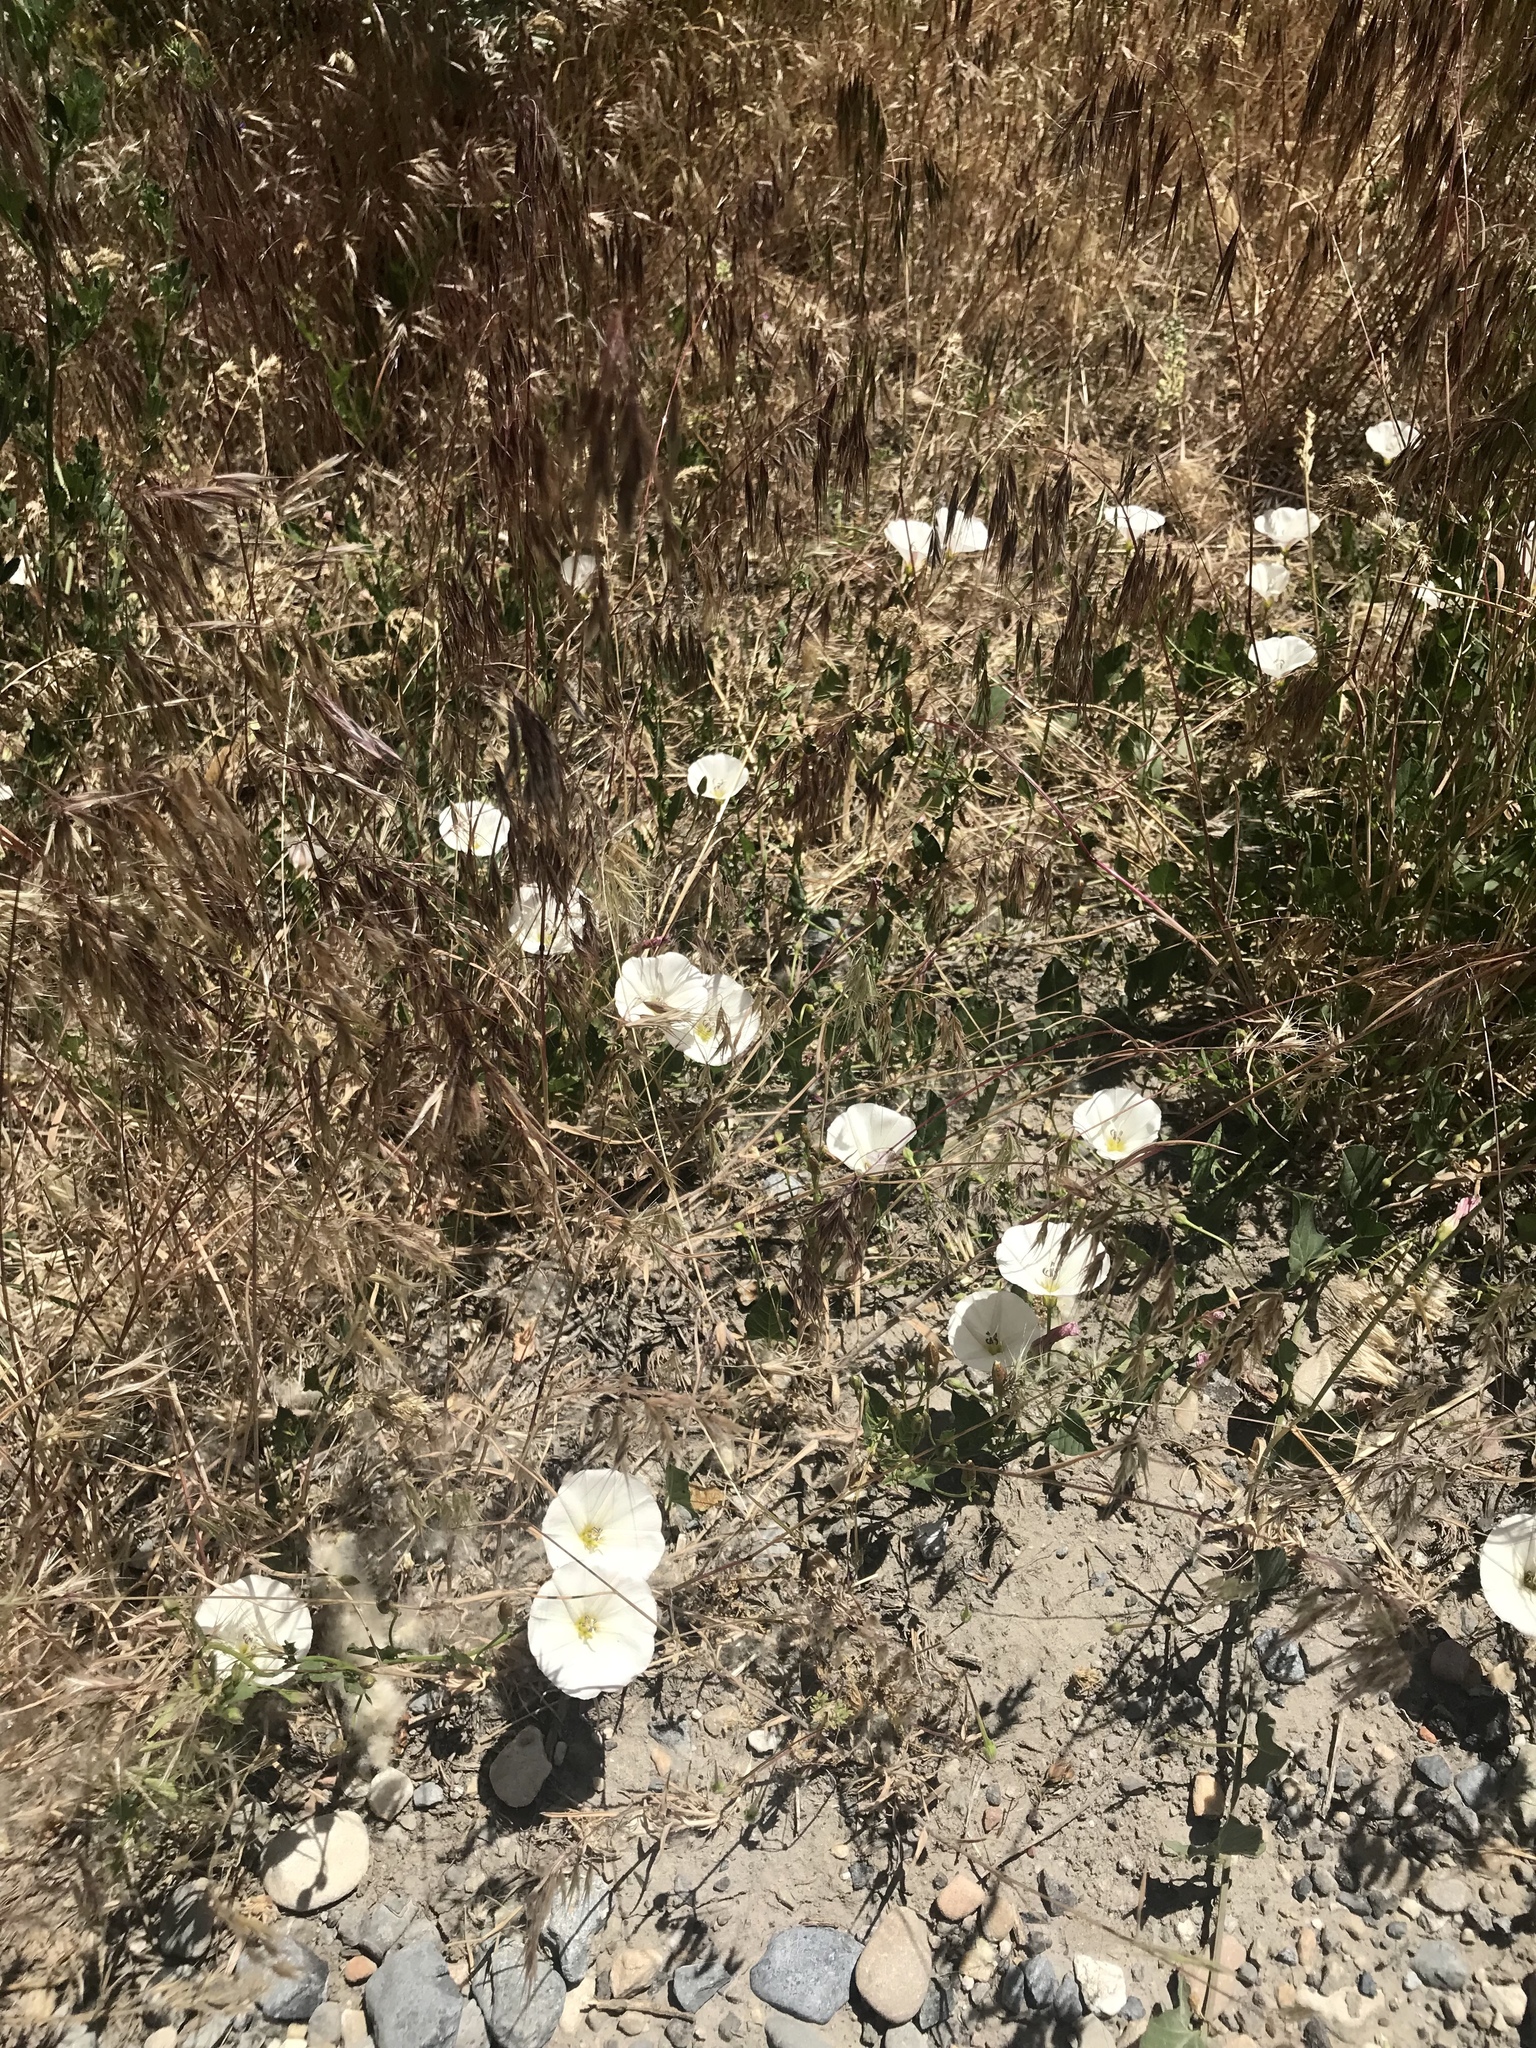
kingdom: Plantae
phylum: Tracheophyta
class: Magnoliopsida
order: Solanales
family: Convolvulaceae
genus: Convolvulus
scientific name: Convolvulus arvensis
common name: Field bindweed
